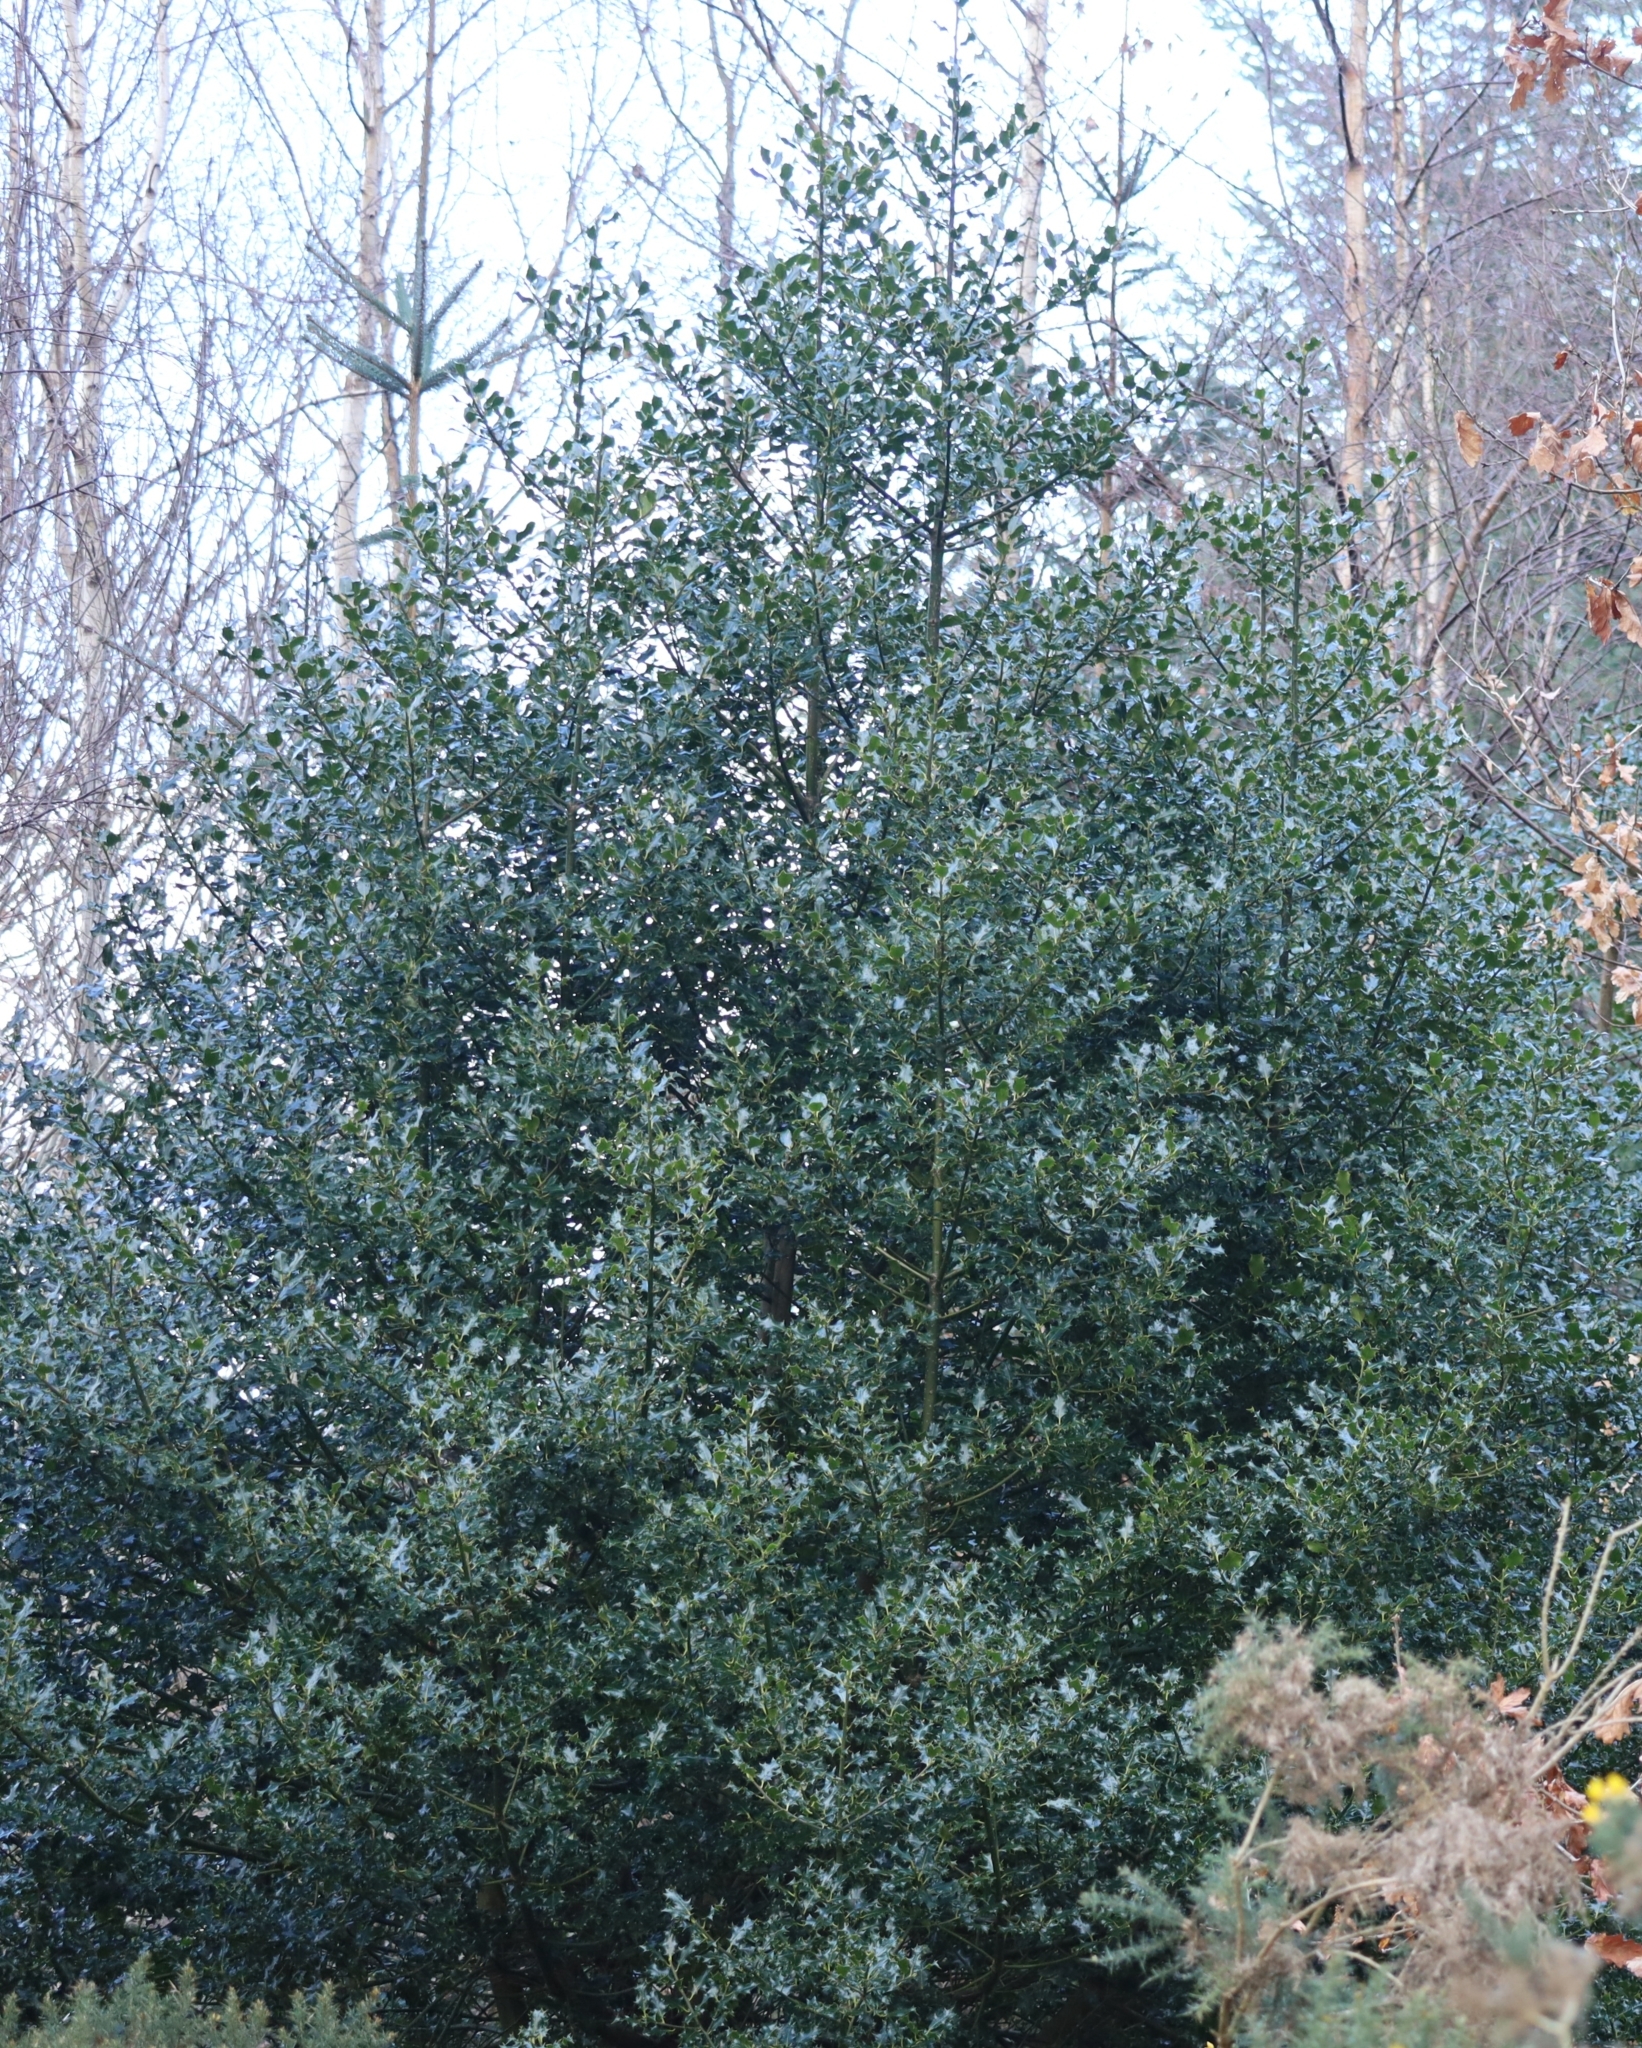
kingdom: Plantae
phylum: Tracheophyta
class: Magnoliopsida
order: Aquifoliales
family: Aquifoliaceae
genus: Ilex
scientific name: Ilex aquifolium
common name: English holly
